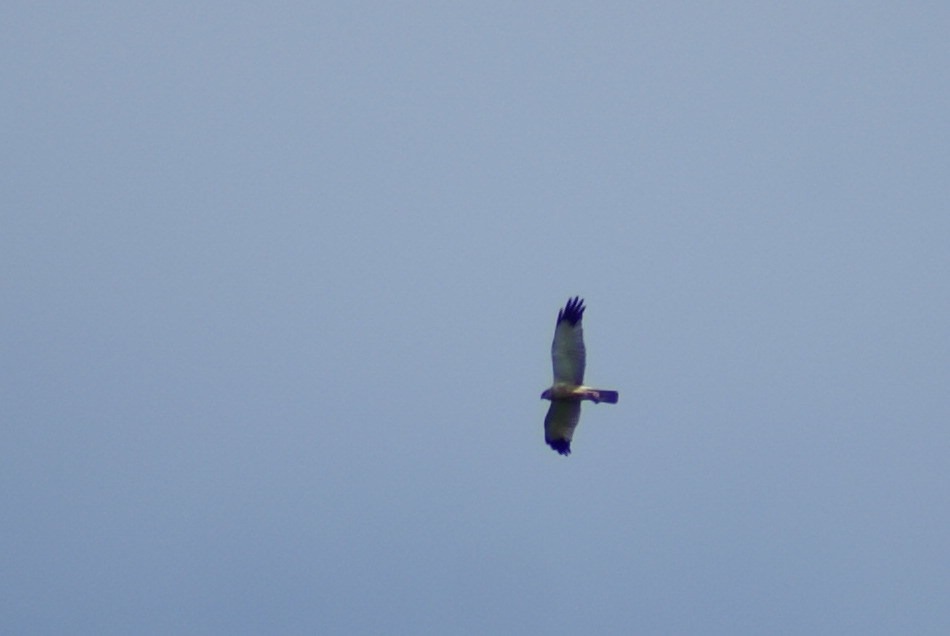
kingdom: Animalia
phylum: Chordata
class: Aves
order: Accipitriformes
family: Accipitridae
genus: Circus
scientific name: Circus aeruginosus
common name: Western marsh harrier
